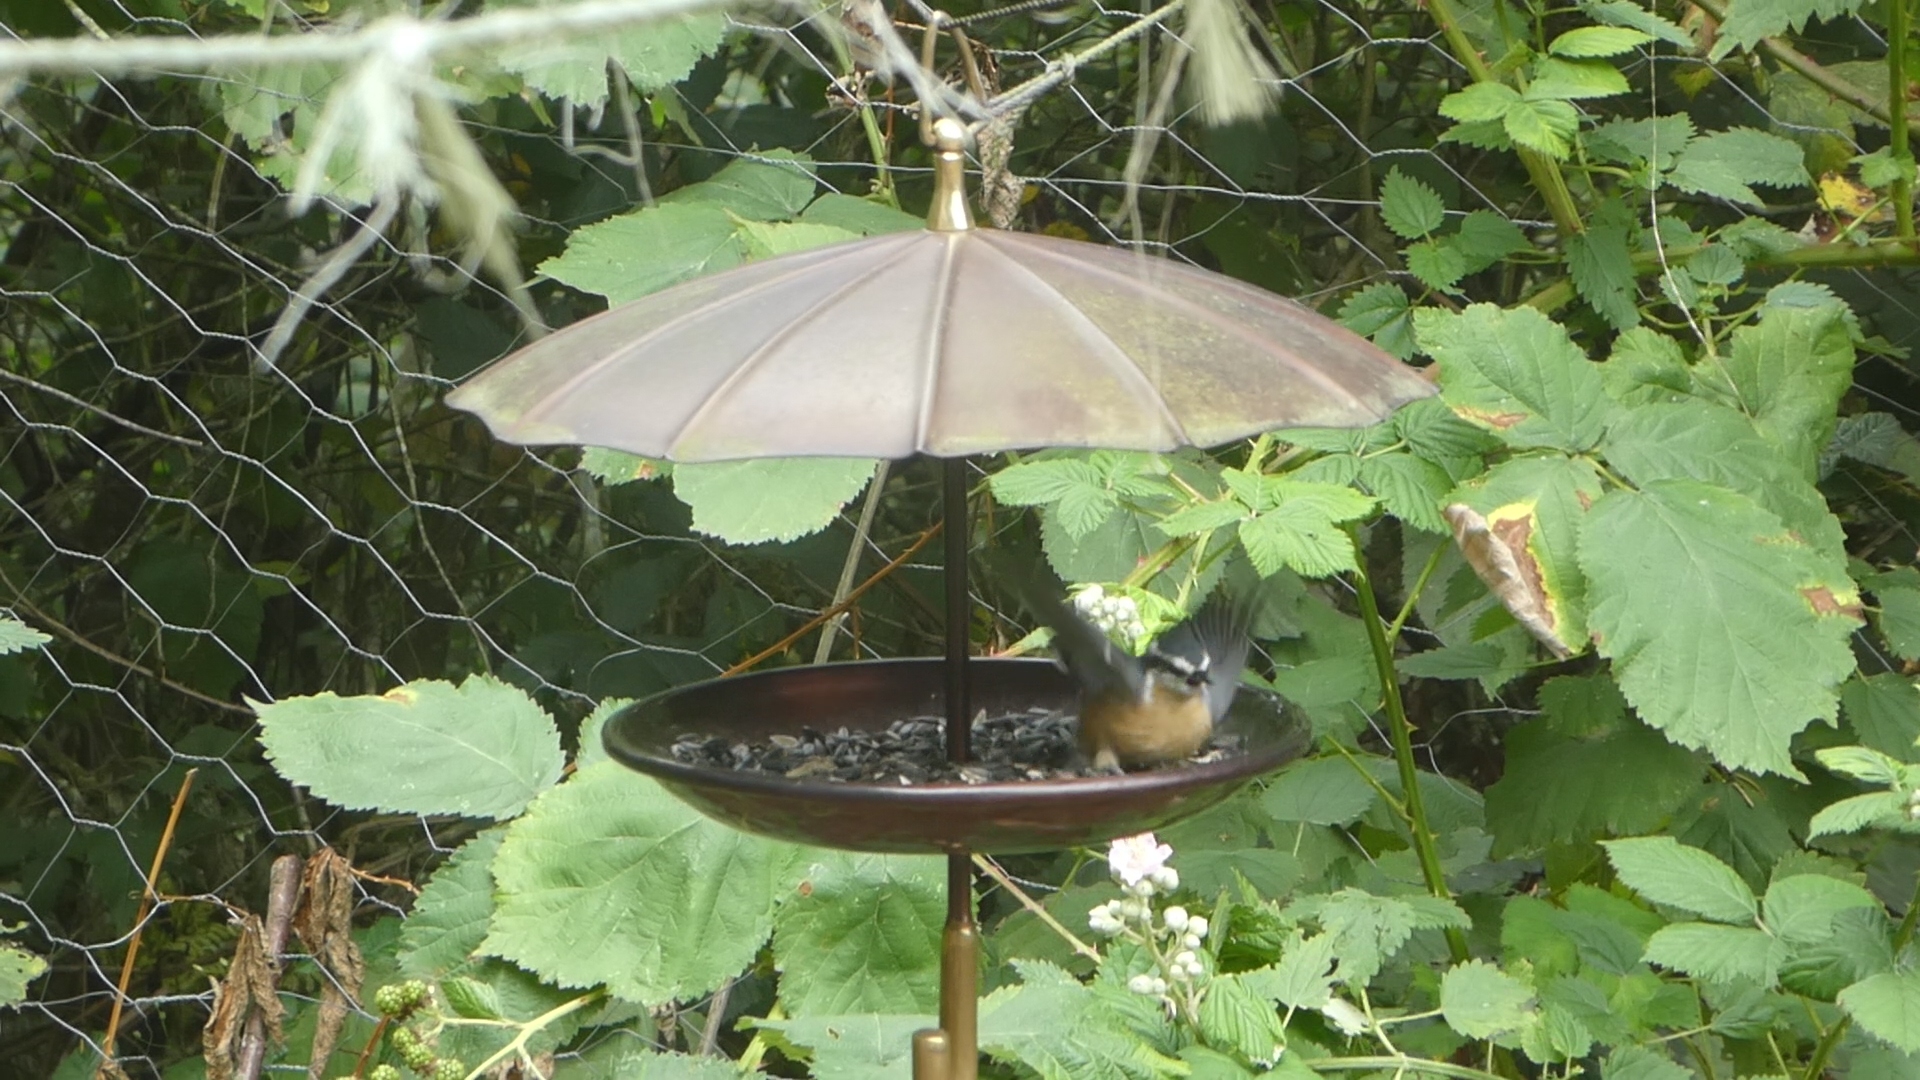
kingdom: Animalia
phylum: Chordata
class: Aves
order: Passeriformes
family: Sittidae
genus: Sitta
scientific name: Sitta canadensis
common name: Red-breasted nuthatch
